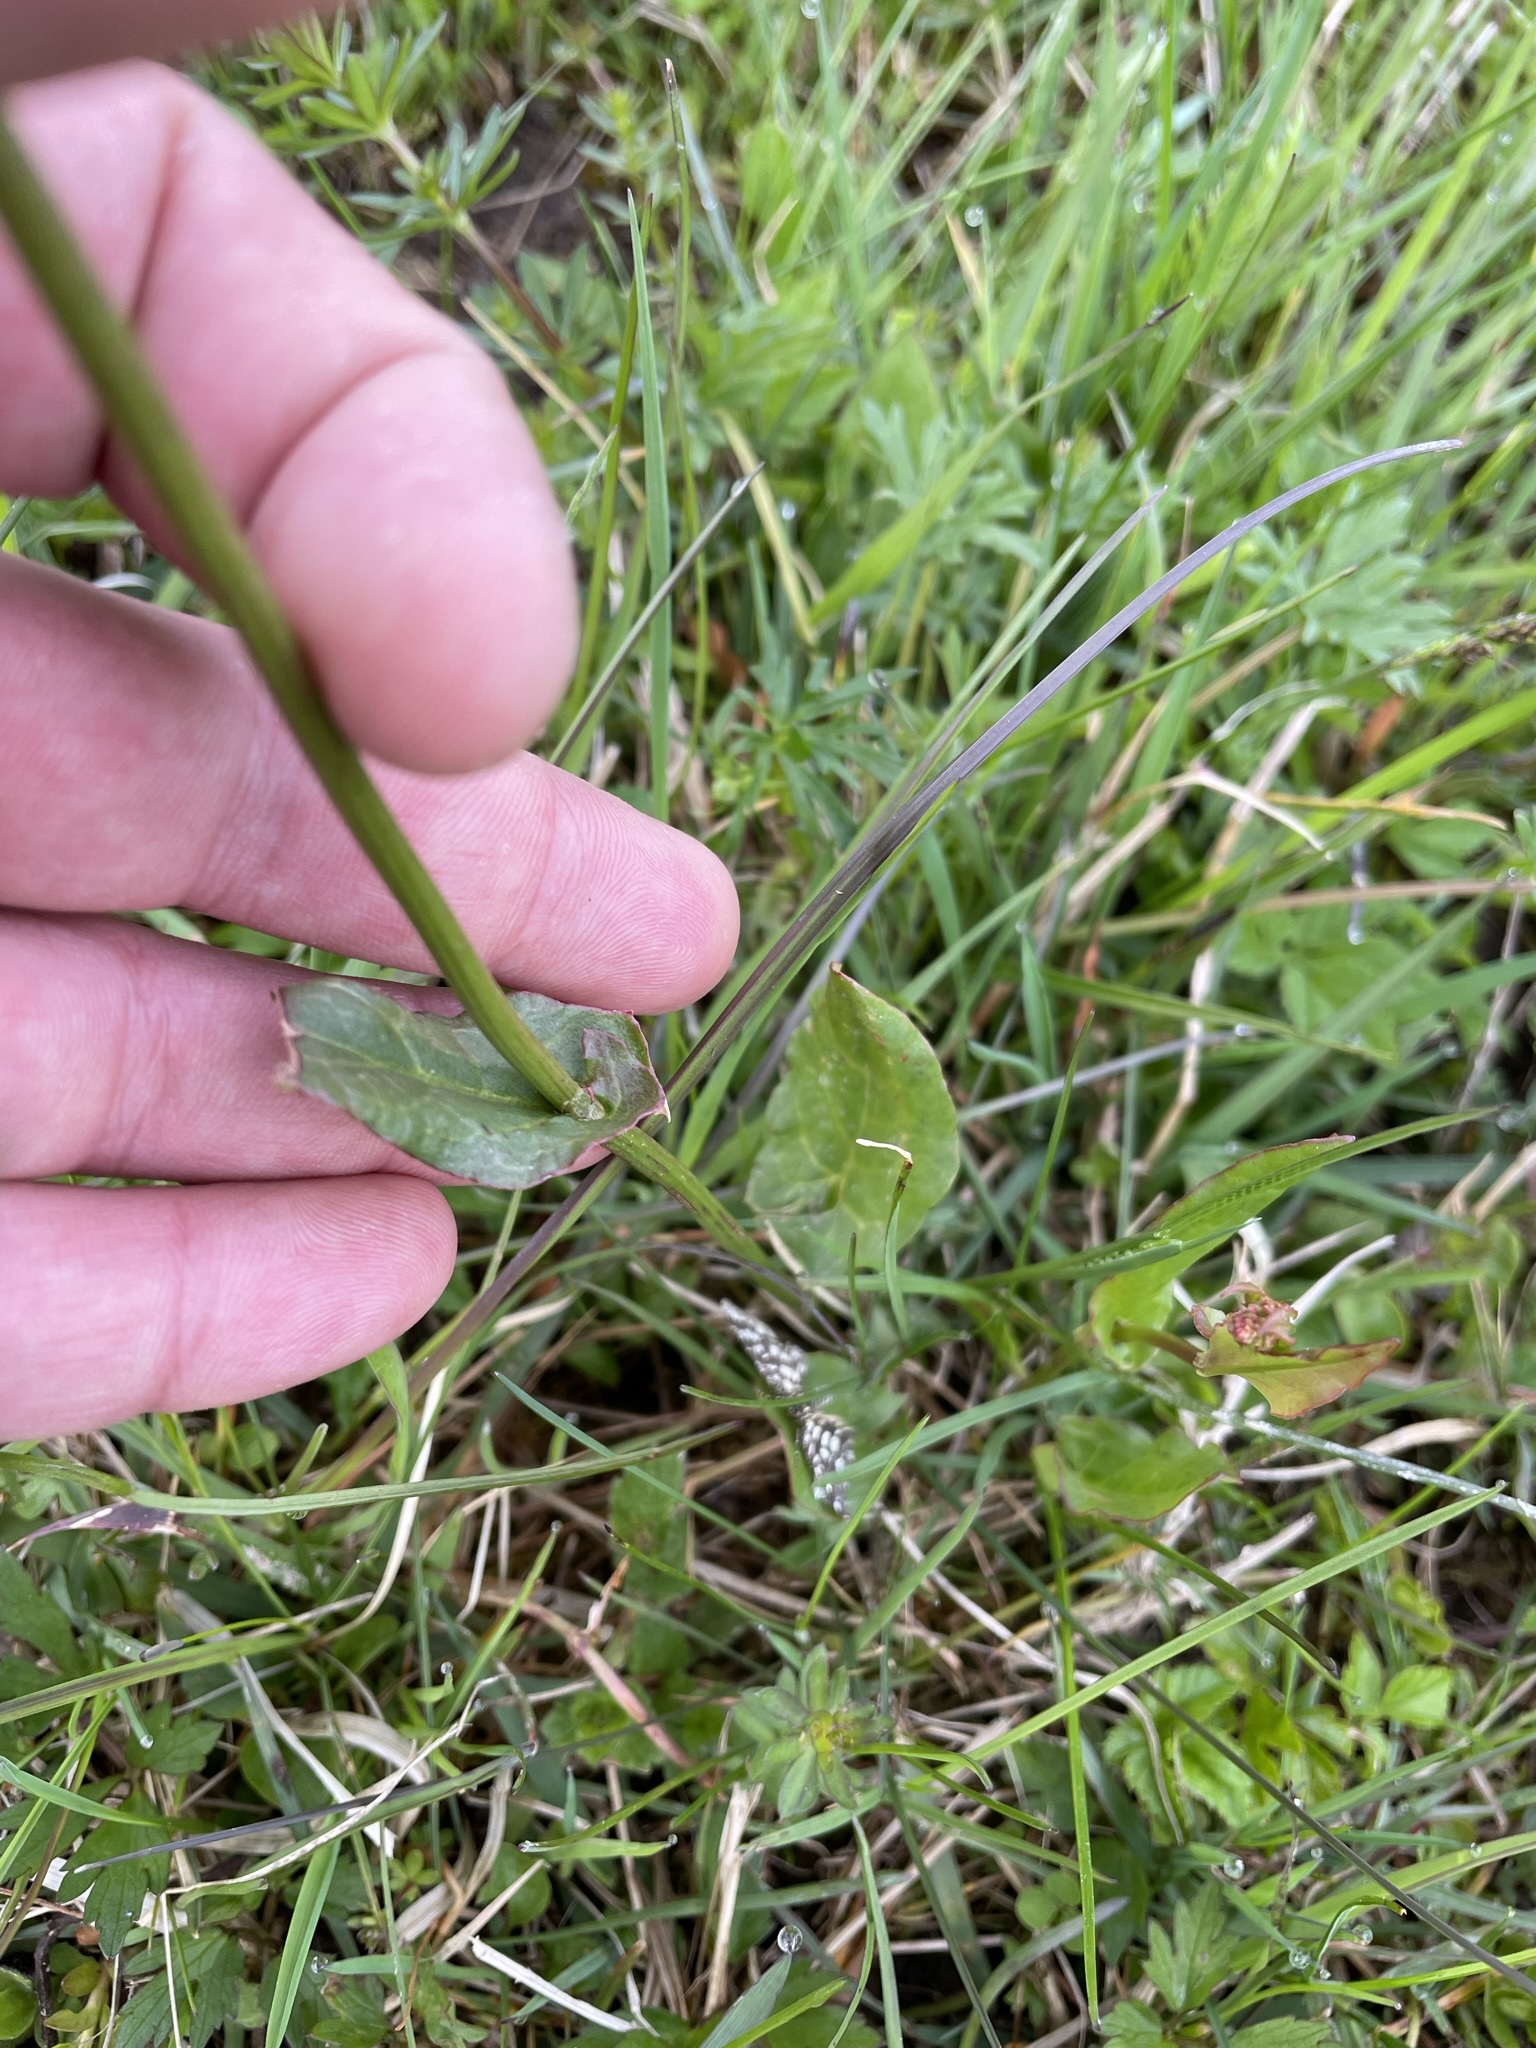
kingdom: Plantae
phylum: Tracheophyta
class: Magnoliopsida
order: Caryophyllales
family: Polygonaceae
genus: Rumex
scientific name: Rumex acetosa
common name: Garden sorrel
